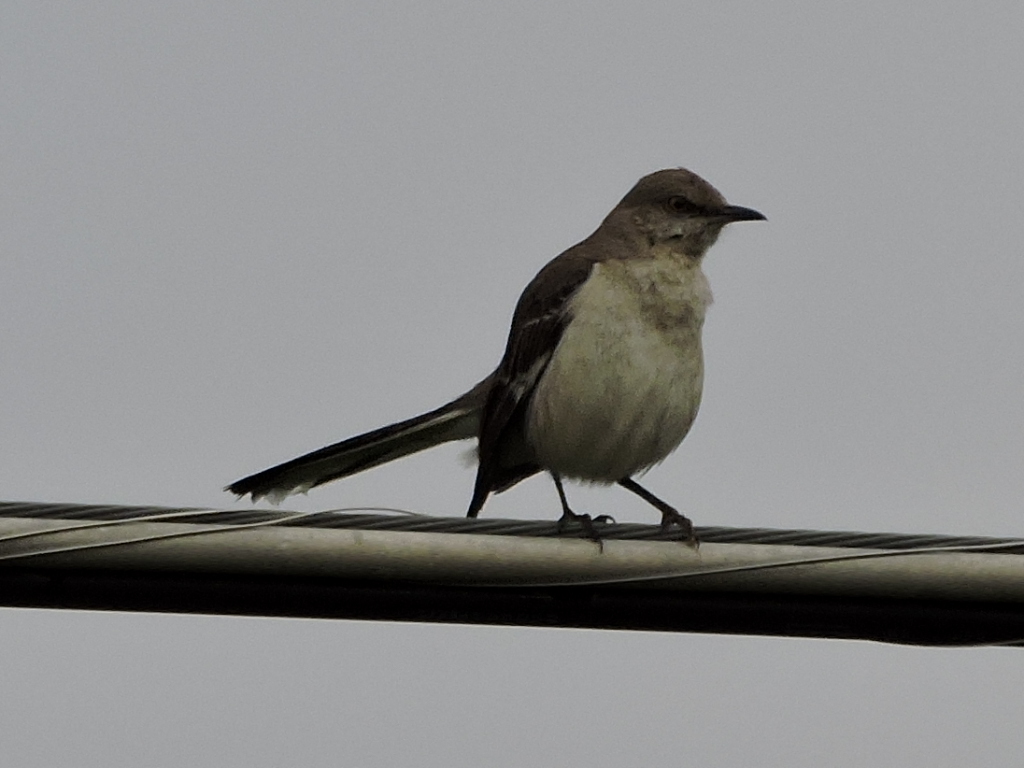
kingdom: Animalia
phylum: Chordata
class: Aves
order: Passeriformes
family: Mimidae
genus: Mimus
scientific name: Mimus polyglottos
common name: Northern mockingbird
